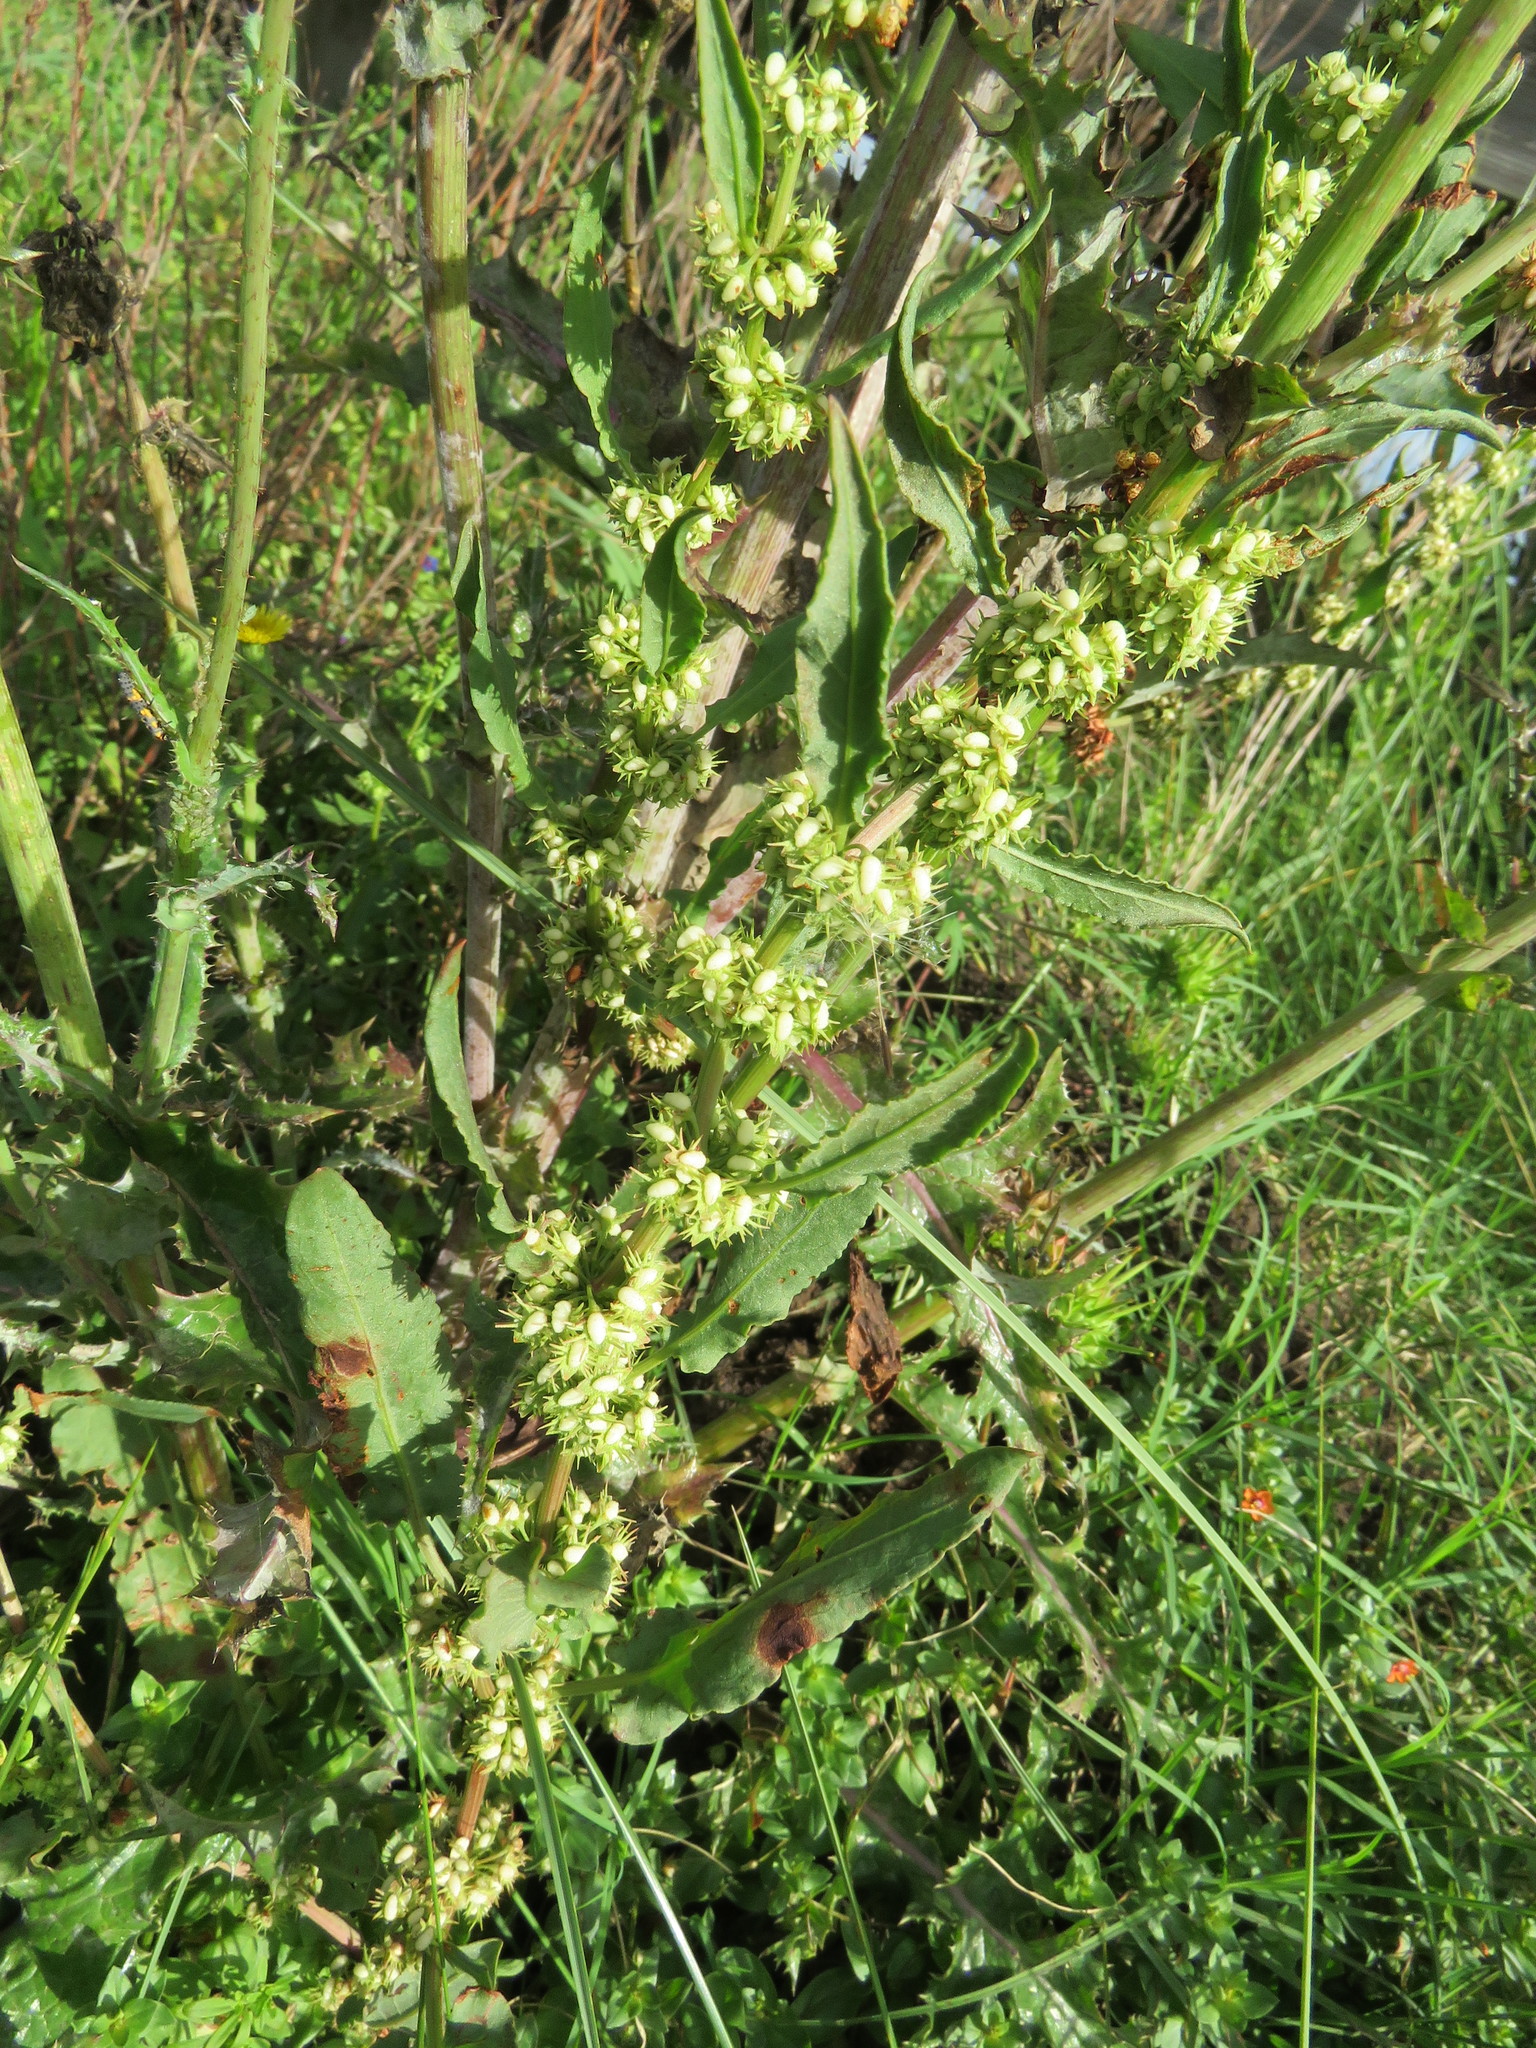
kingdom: Plantae
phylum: Tracheophyta
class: Magnoliopsida
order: Caryophyllales
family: Polygonaceae
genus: Rumex
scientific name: Rumex pulcher
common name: Fiddle dock
